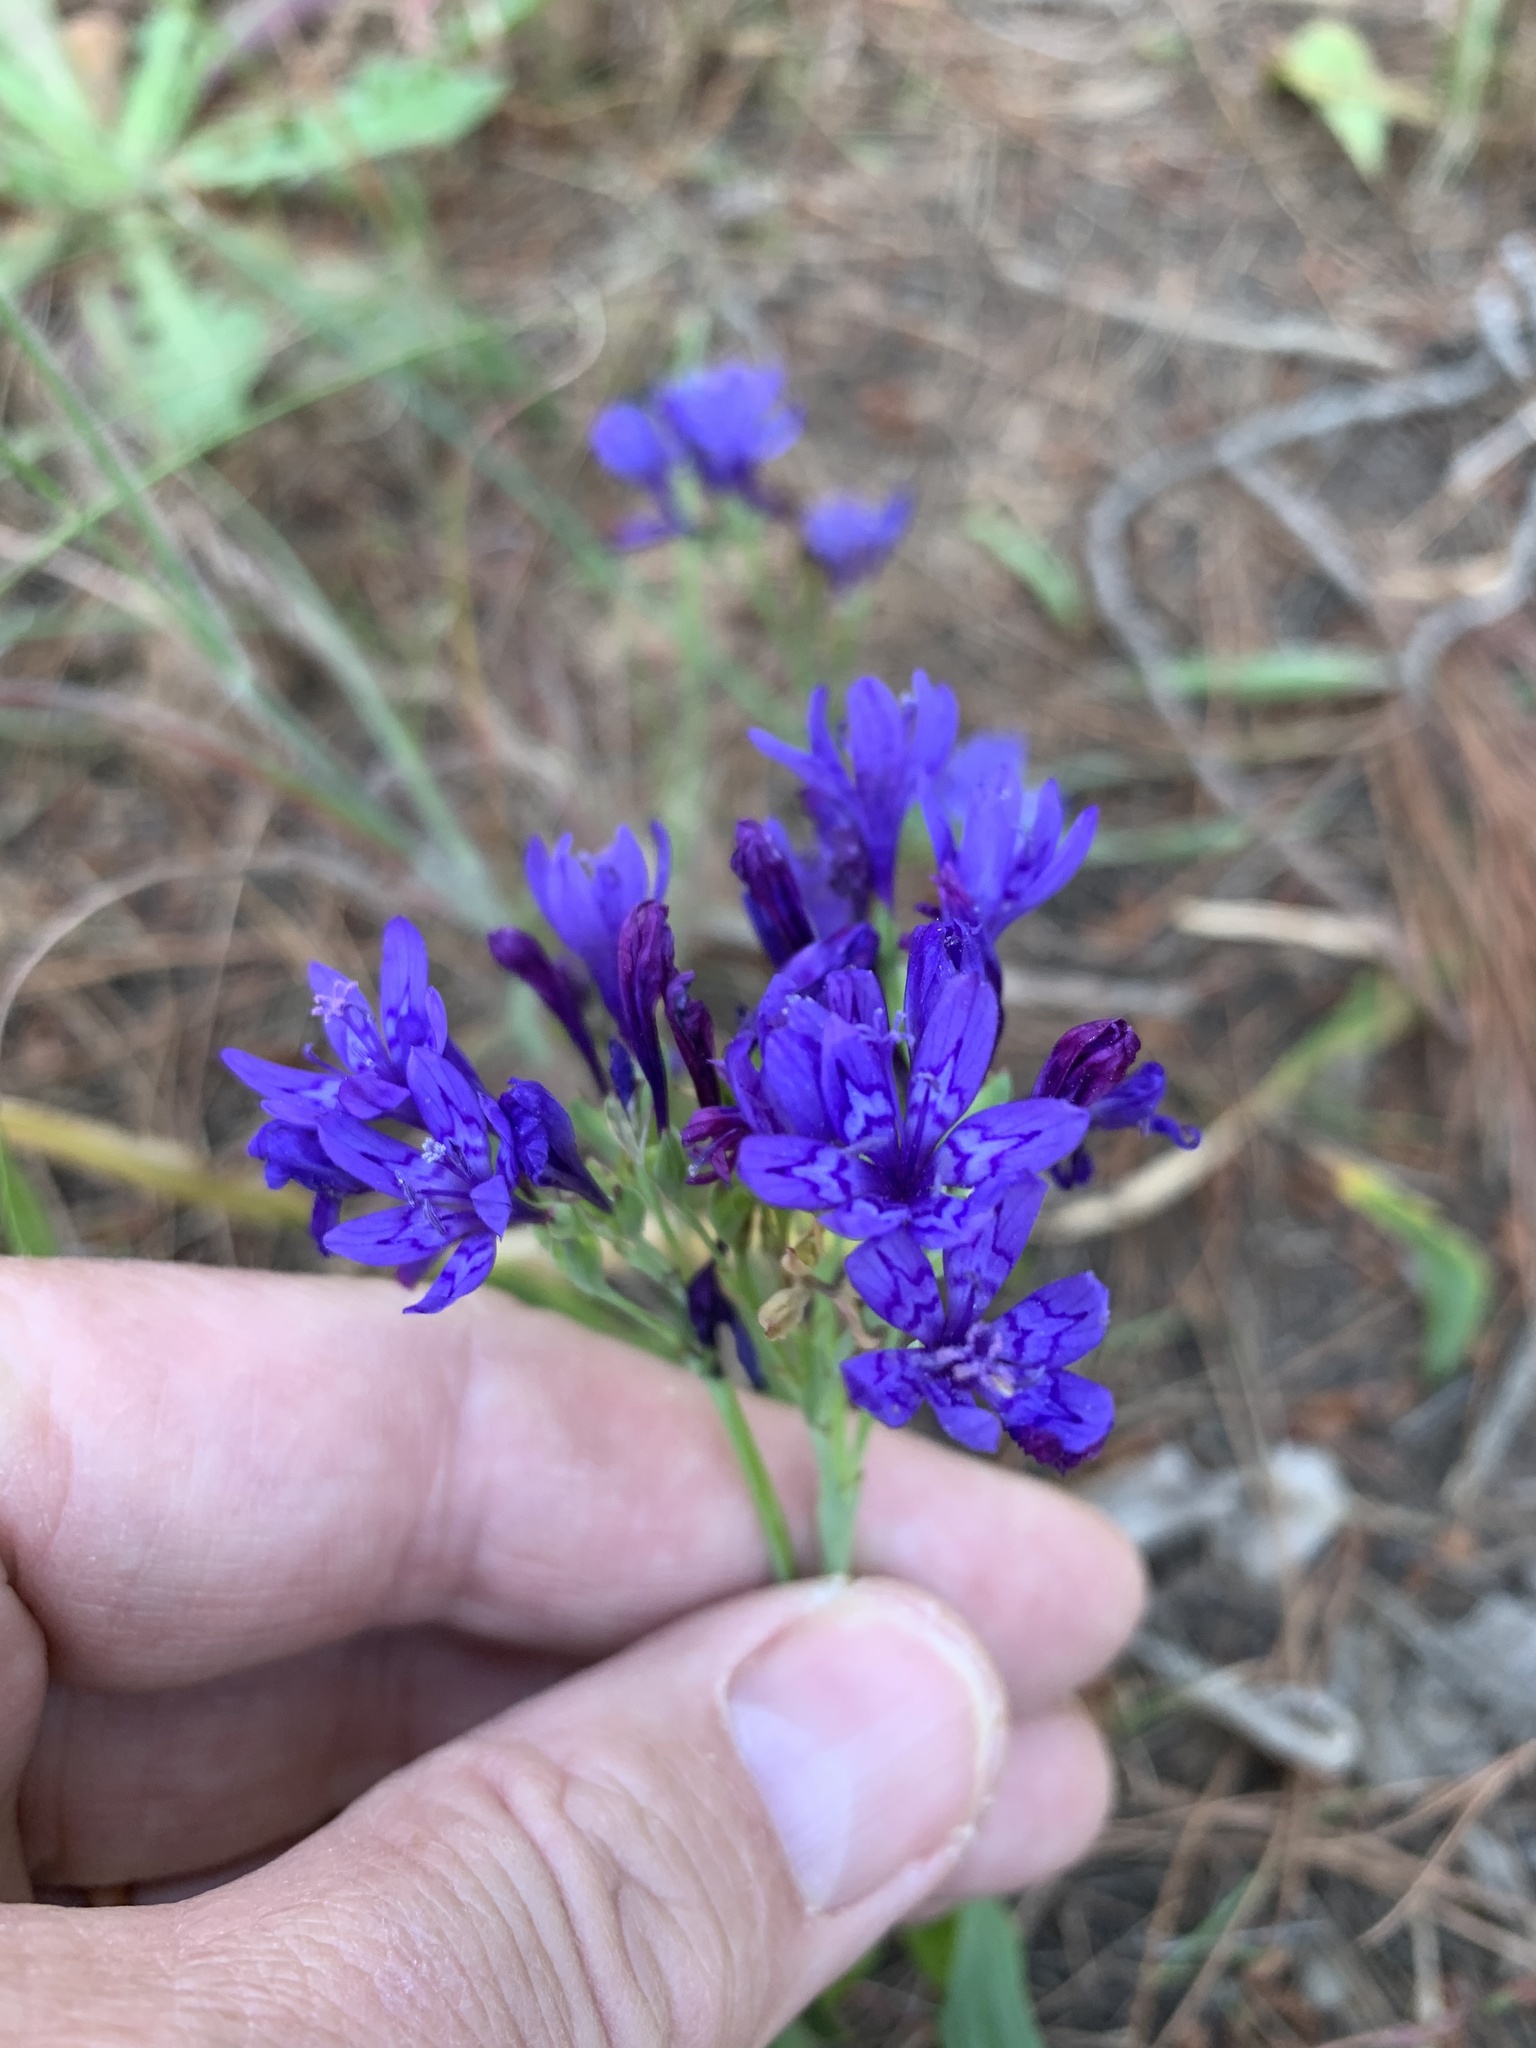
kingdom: Plantae
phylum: Tracheophyta
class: Liliopsida
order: Asparagales
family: Iridaceae
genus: Codonorhiza
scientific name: Codonorhiza corymbosa
